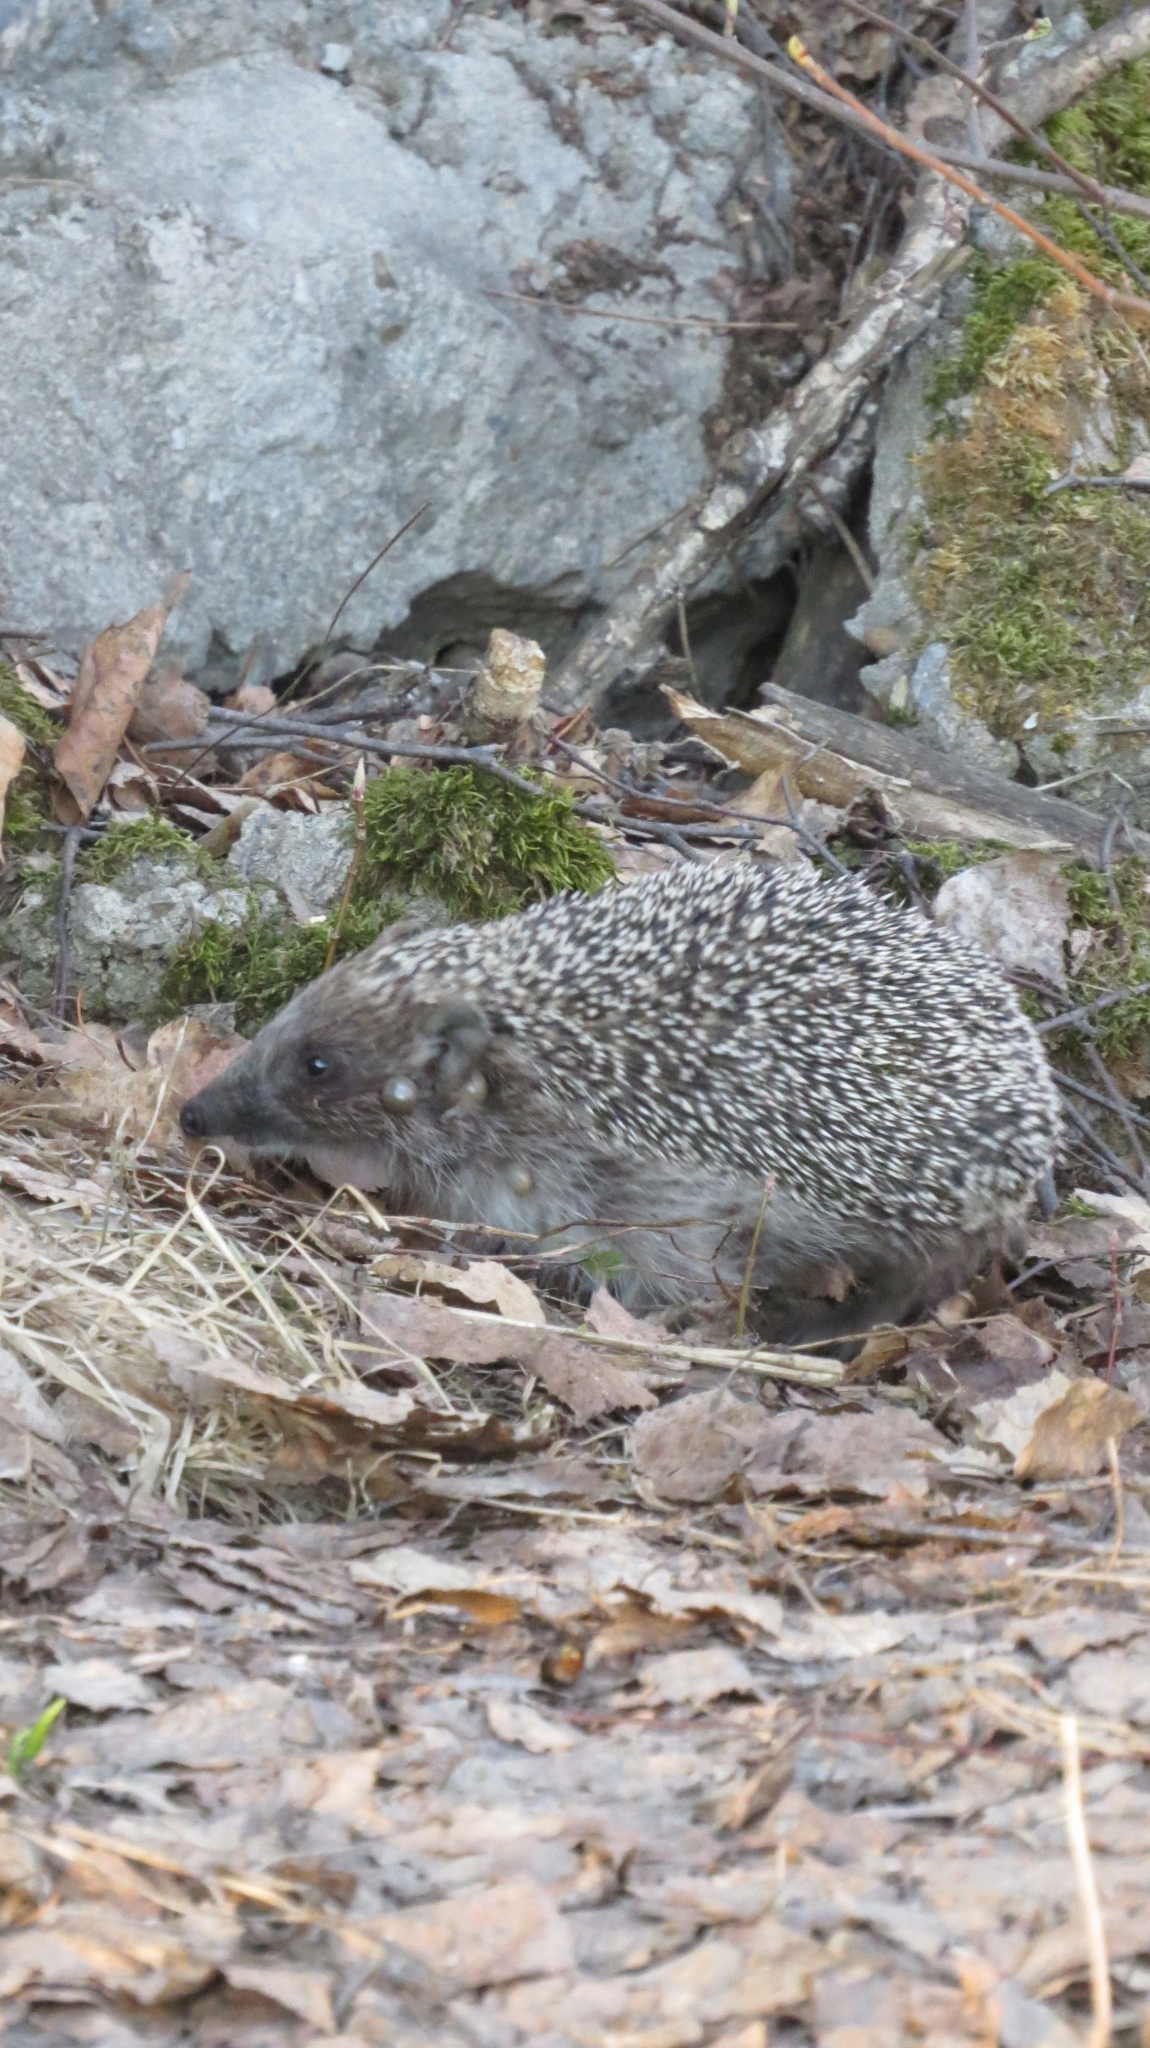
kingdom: Animalia
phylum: Chordata
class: Mammalia
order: Erinaceomorpha
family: Erinaceidae
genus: Erinaceus
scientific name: Erinaceus roumanicus
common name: Northern white-breasted hedgehog
